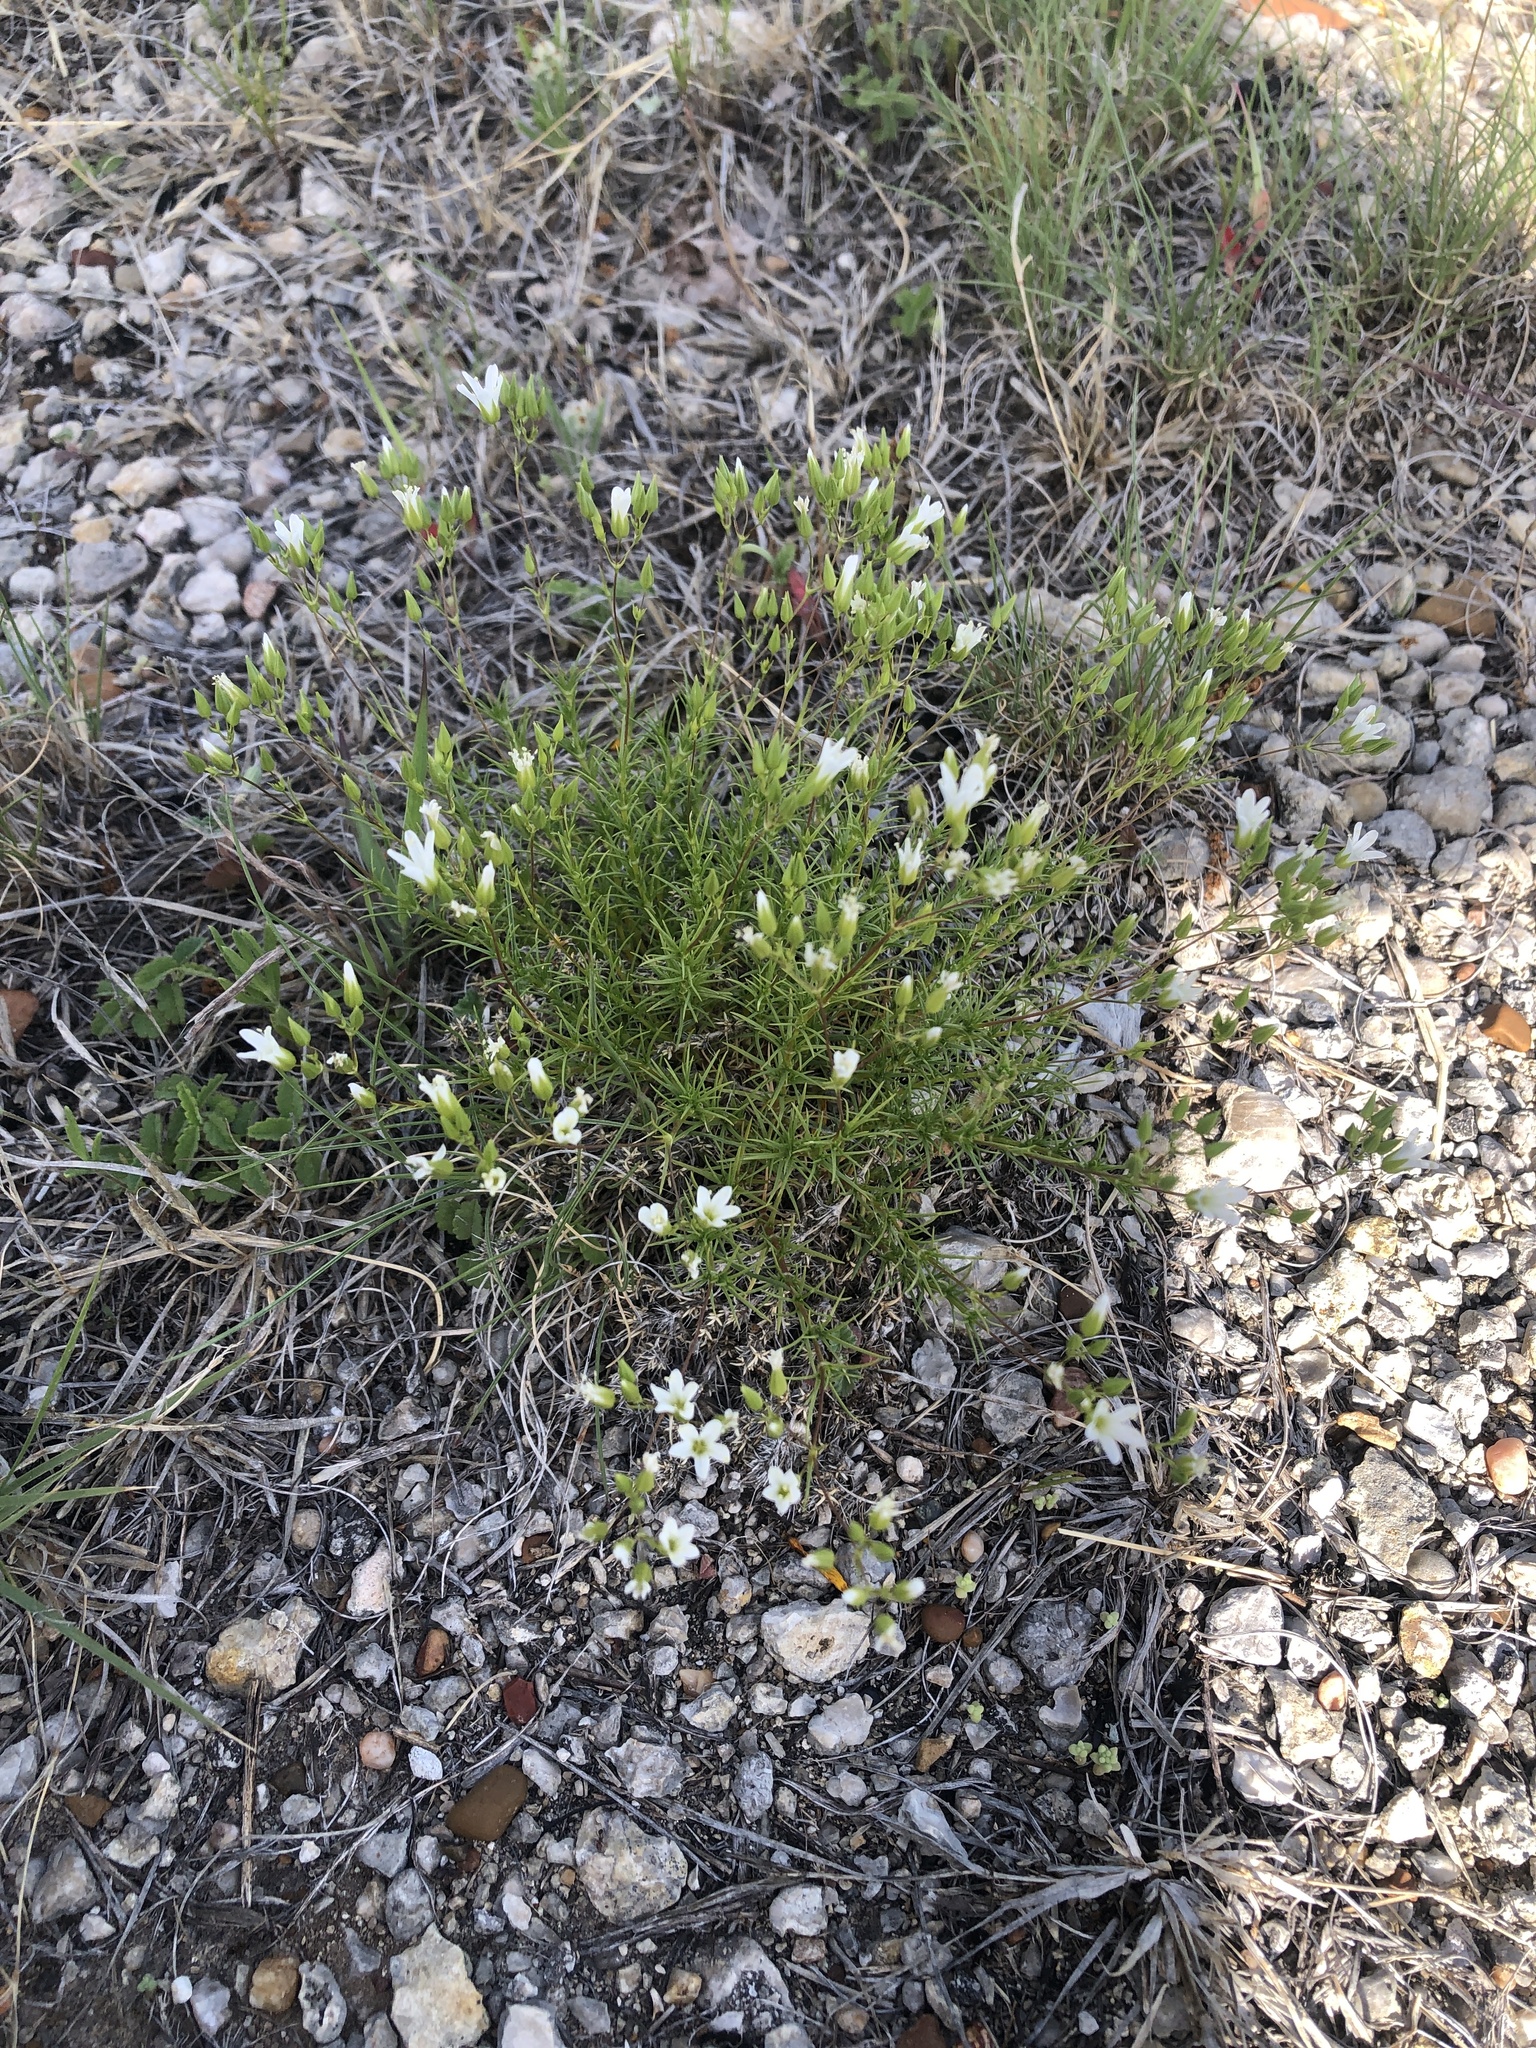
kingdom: Plantae
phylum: Tracheophyta
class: Magnoliopsida
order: Caryophyllales
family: Caryophyllaceae
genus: Sabulina
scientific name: Sabulina michauxii
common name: Michaux's stitchwort
